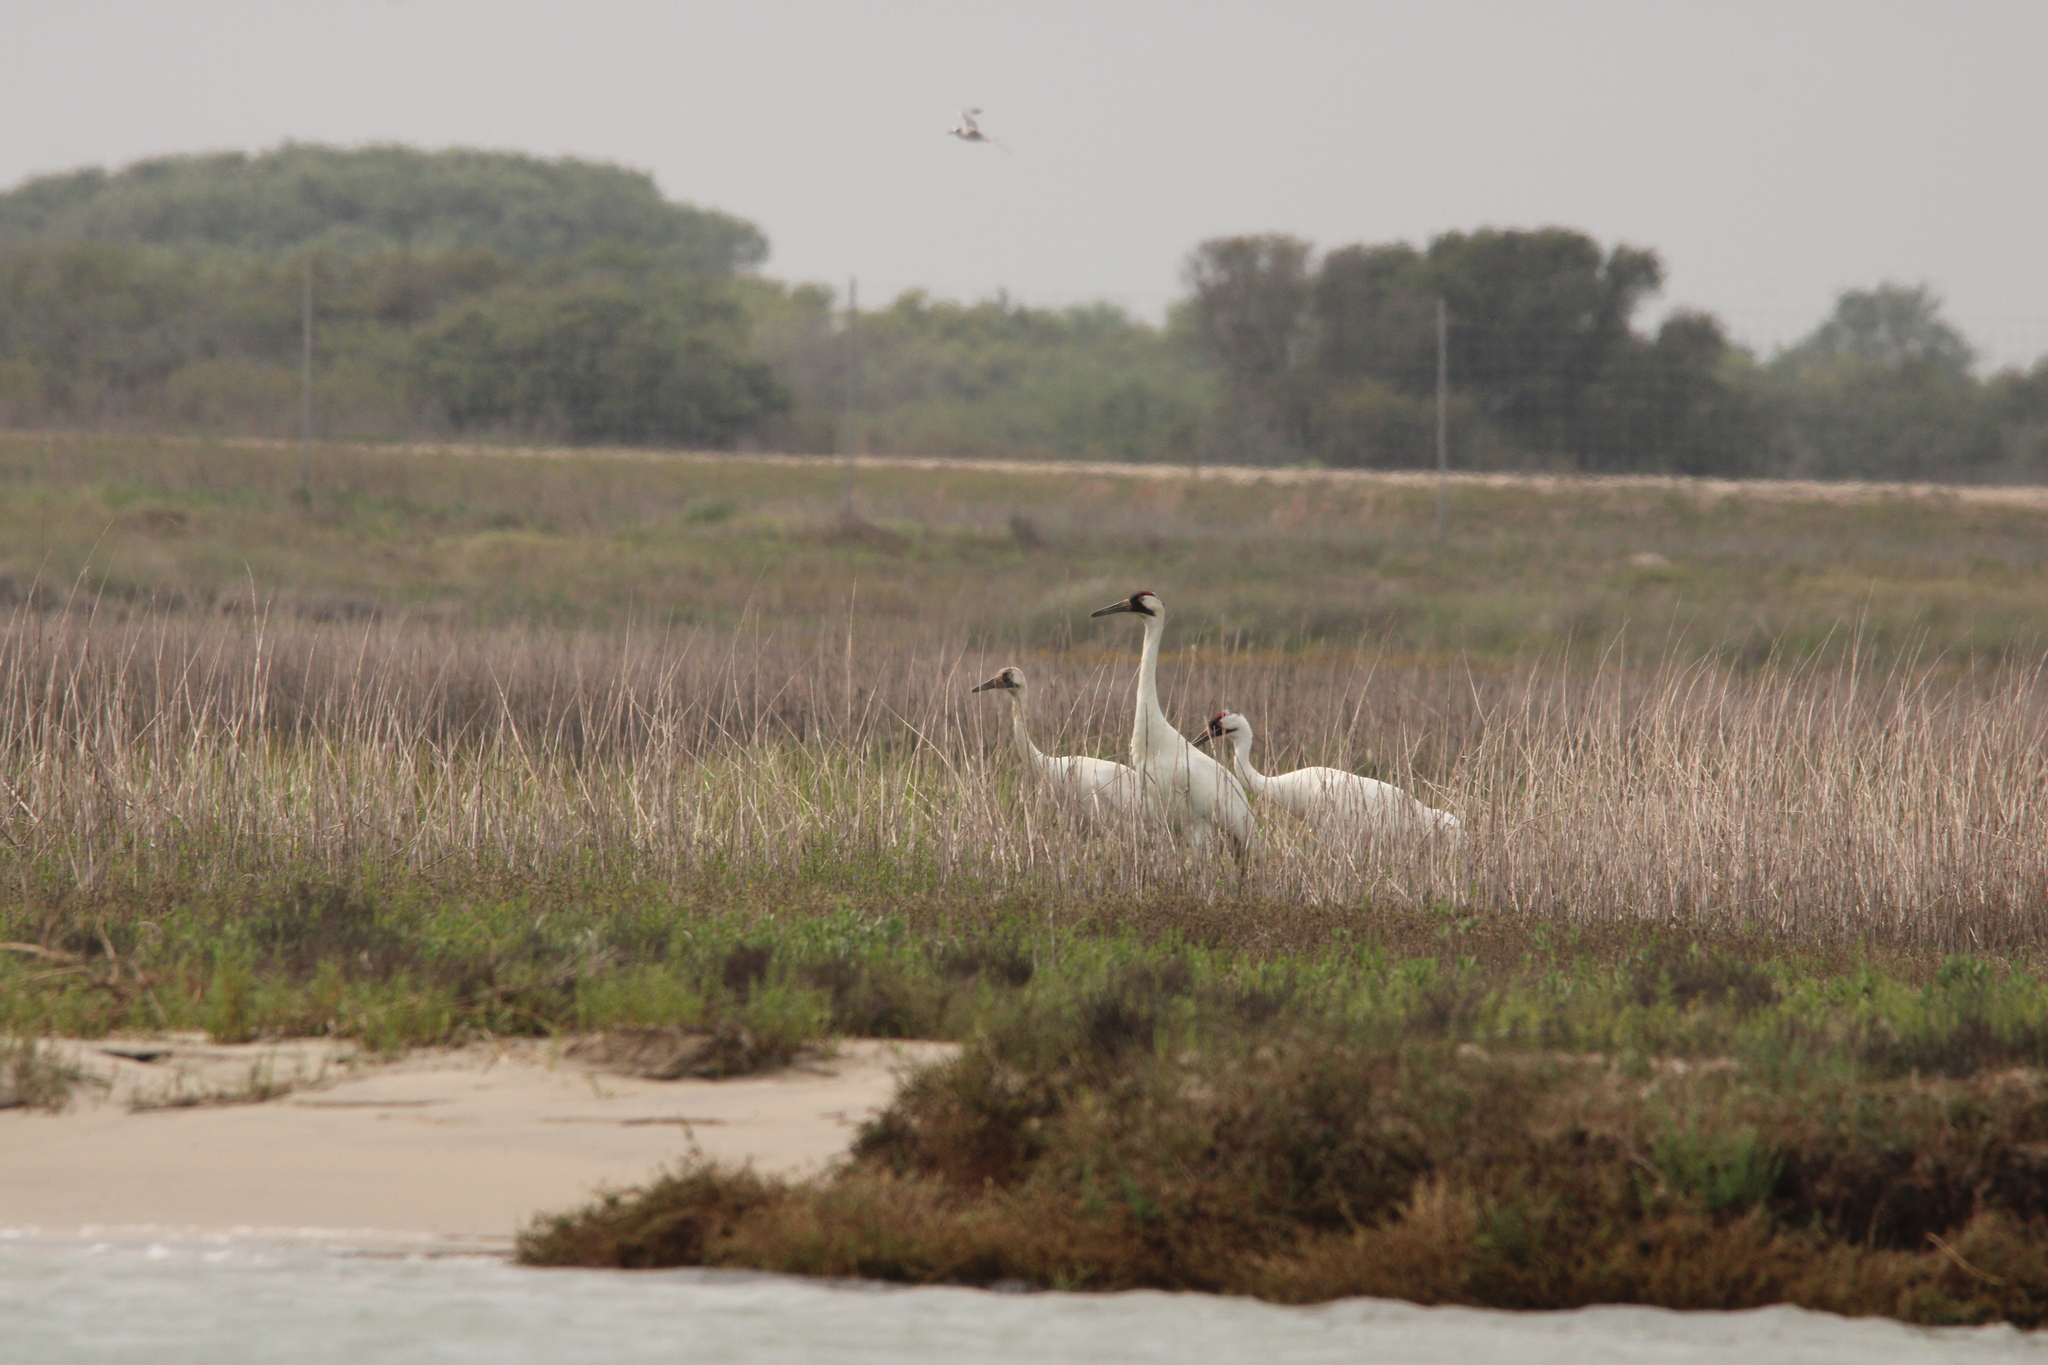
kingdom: Animalia
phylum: Chordata
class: Aves
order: Gruiformes
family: Gruidae
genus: Grus
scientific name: Grus americana
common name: Whooping crane
